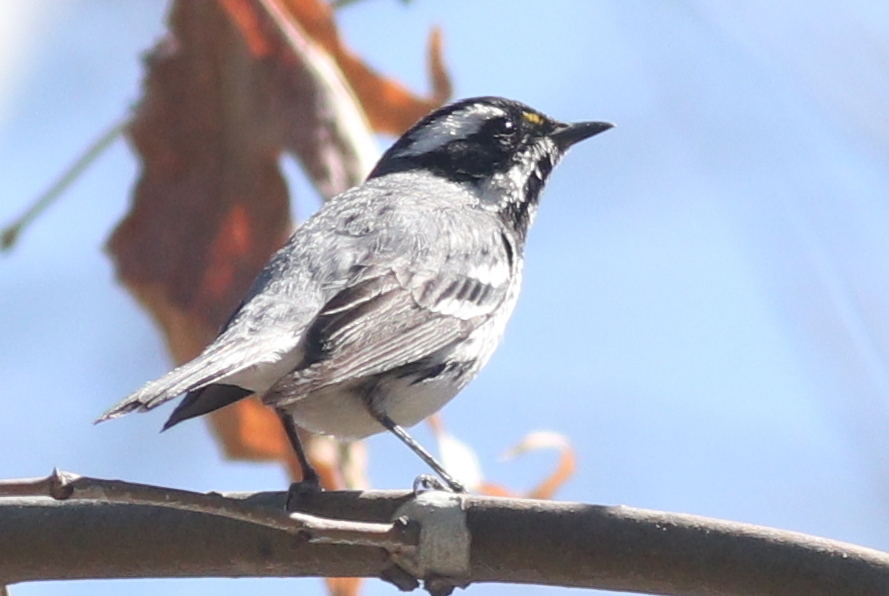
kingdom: Animalia
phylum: Chordata
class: Aves
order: Passeriformes
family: Parulidae
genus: Setophaga
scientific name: Setophaga nigrescens
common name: Black-throated gray warbler
